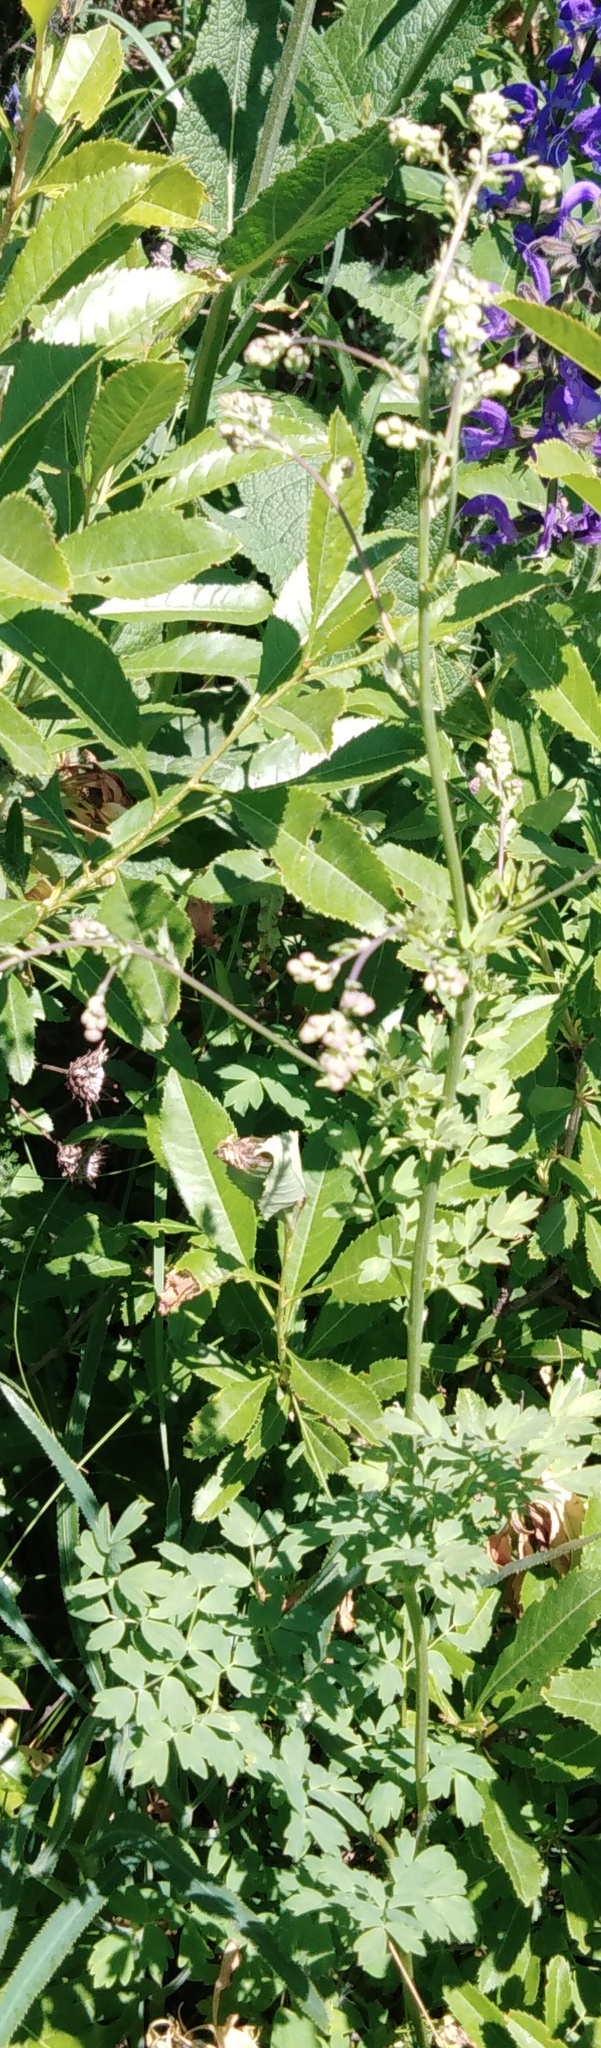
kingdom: Plantae
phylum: Tracheophyta
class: Magnoliopsida
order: Ranunculales
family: Ranunculaceae
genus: Thalictrum
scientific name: Thalictrum minus
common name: Lesser meadow-rue
